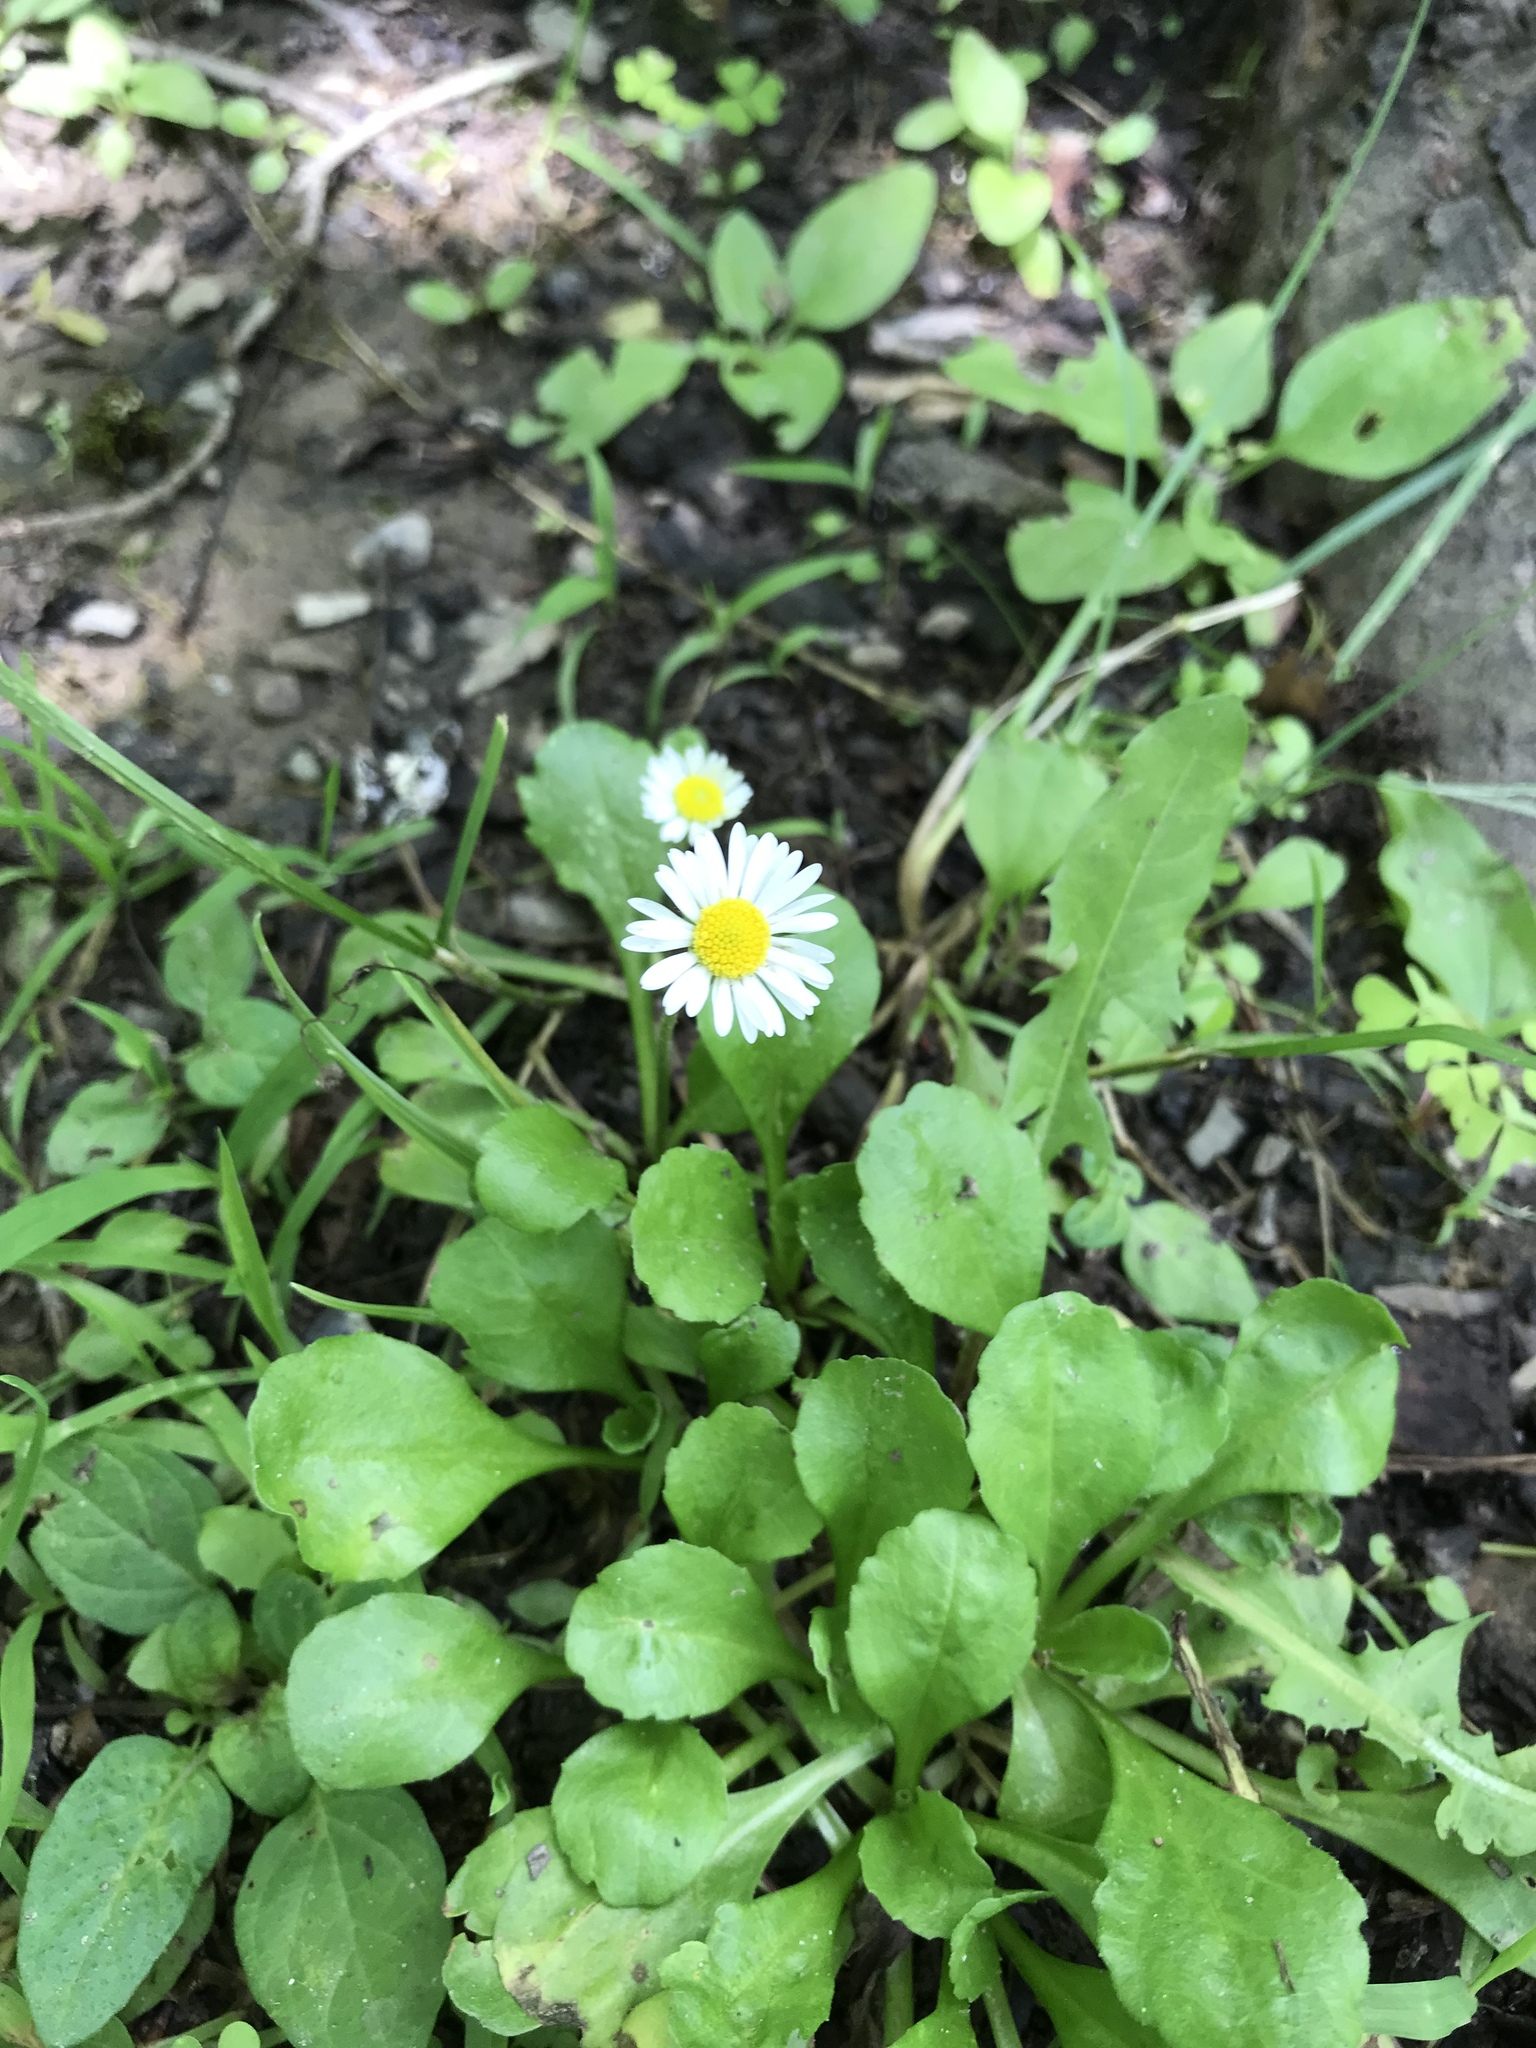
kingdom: Plantae
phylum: Tracheophyta
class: Magnoliopsida
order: Asterales
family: Asteraceae
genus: Bellis
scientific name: Bellis perennis
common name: Lawndaisy
